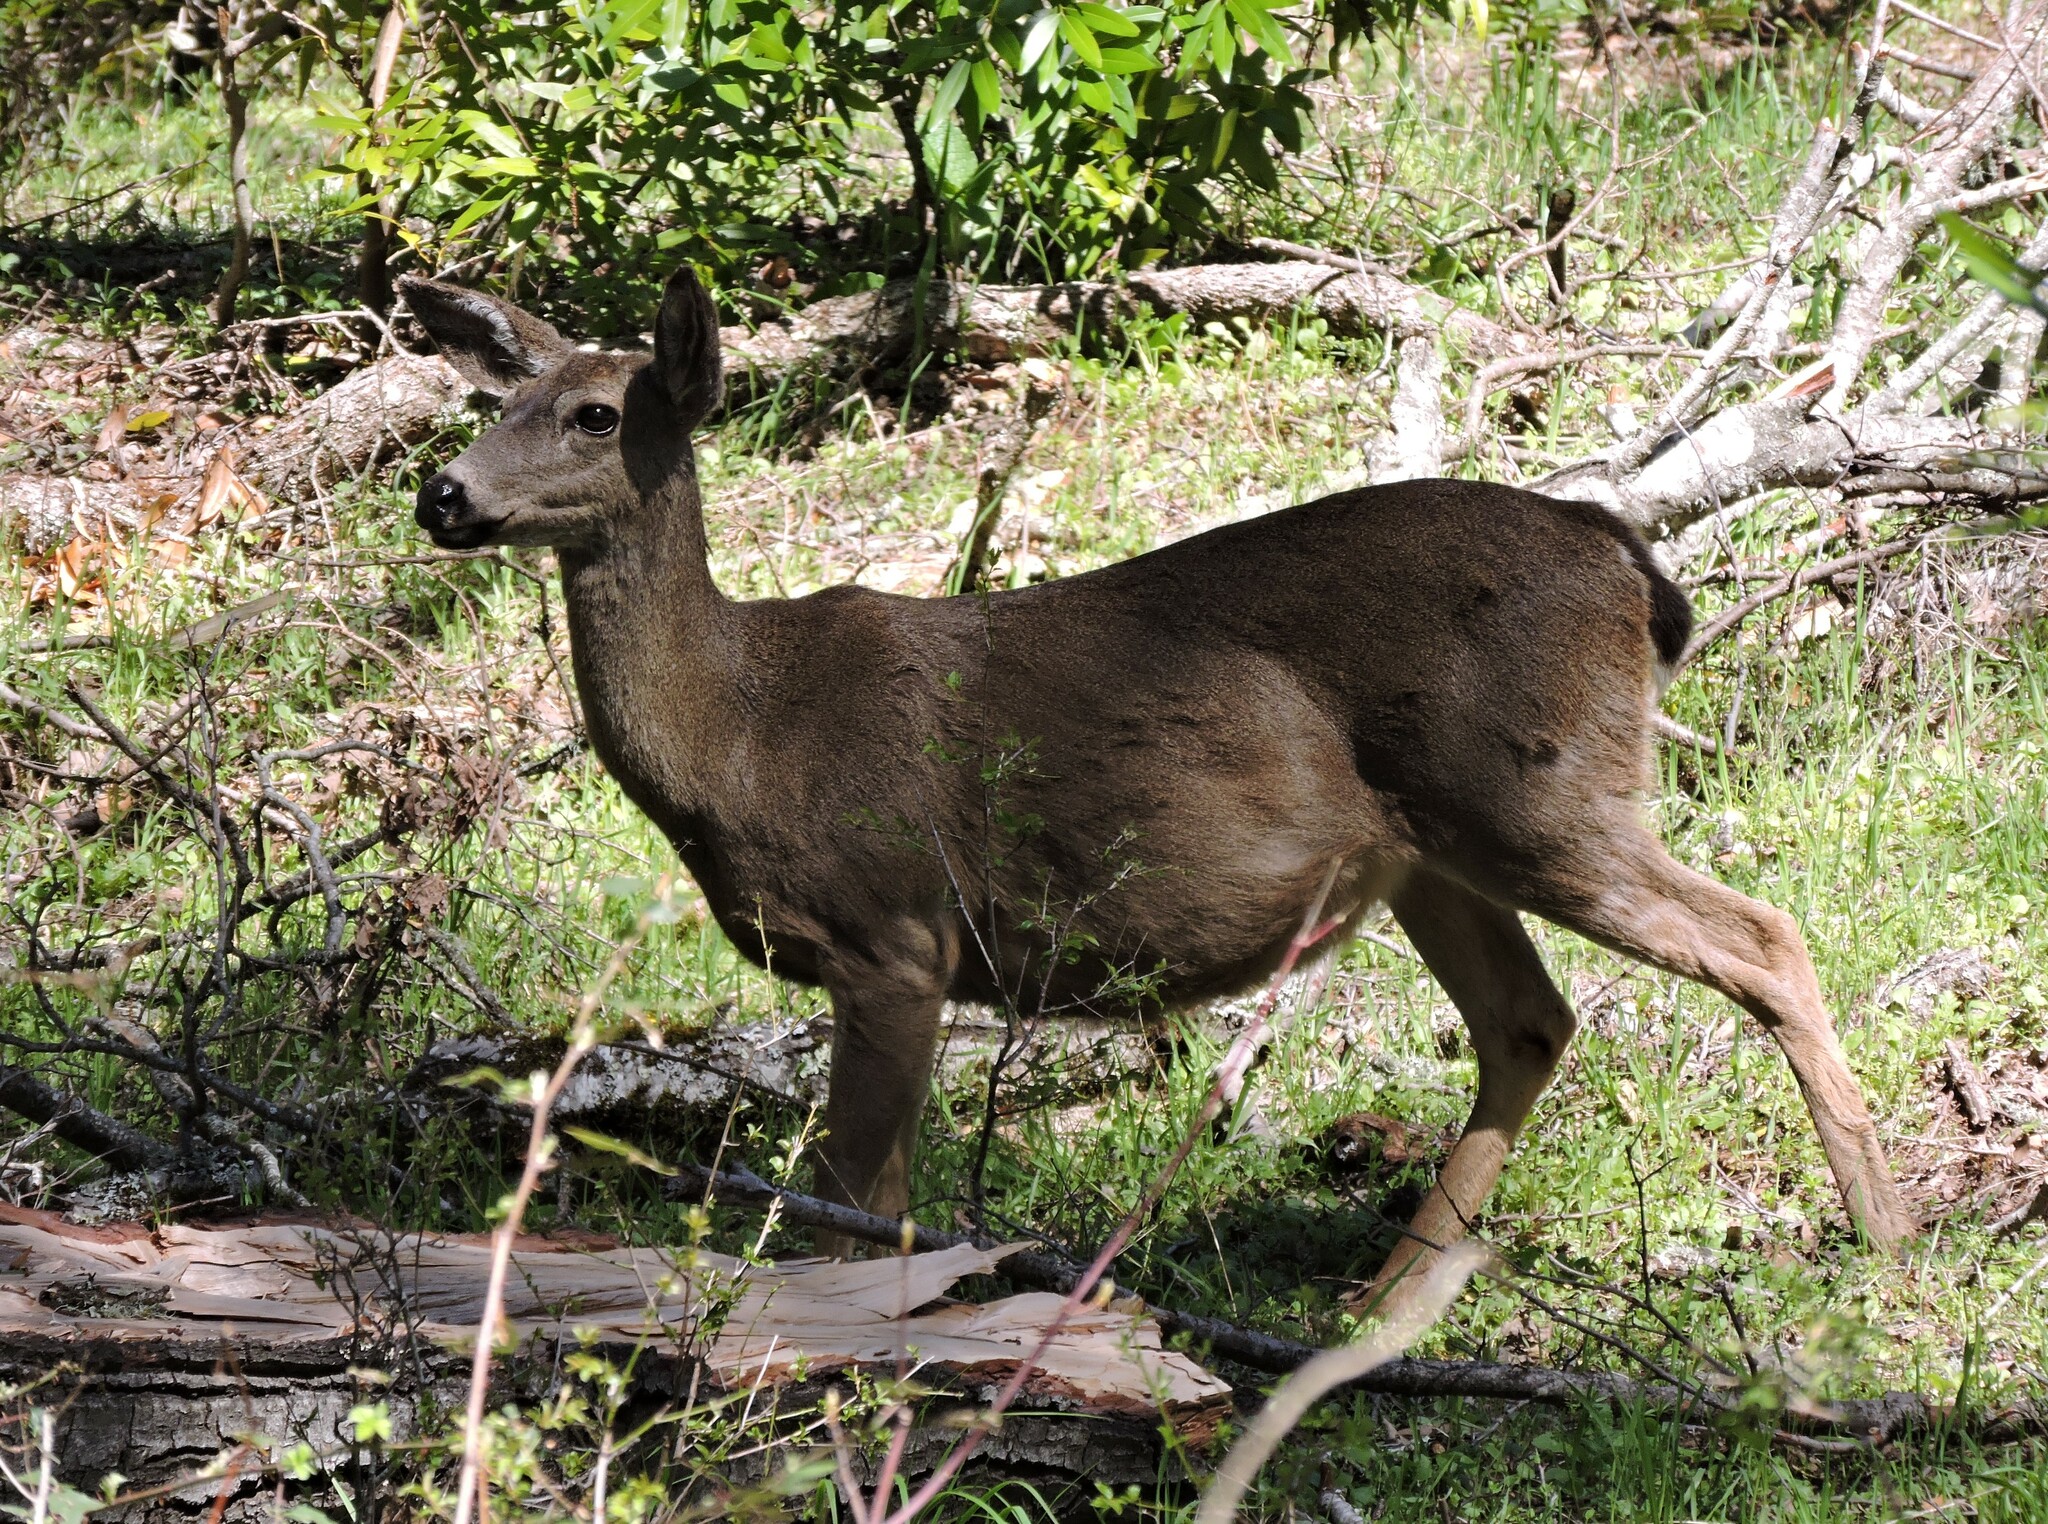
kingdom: Animalia
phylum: Chordata
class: Mammalia
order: Artiodactyla
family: Cervidae
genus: Odocoileus
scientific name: Odocoileus hemionus
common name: Mule deer
